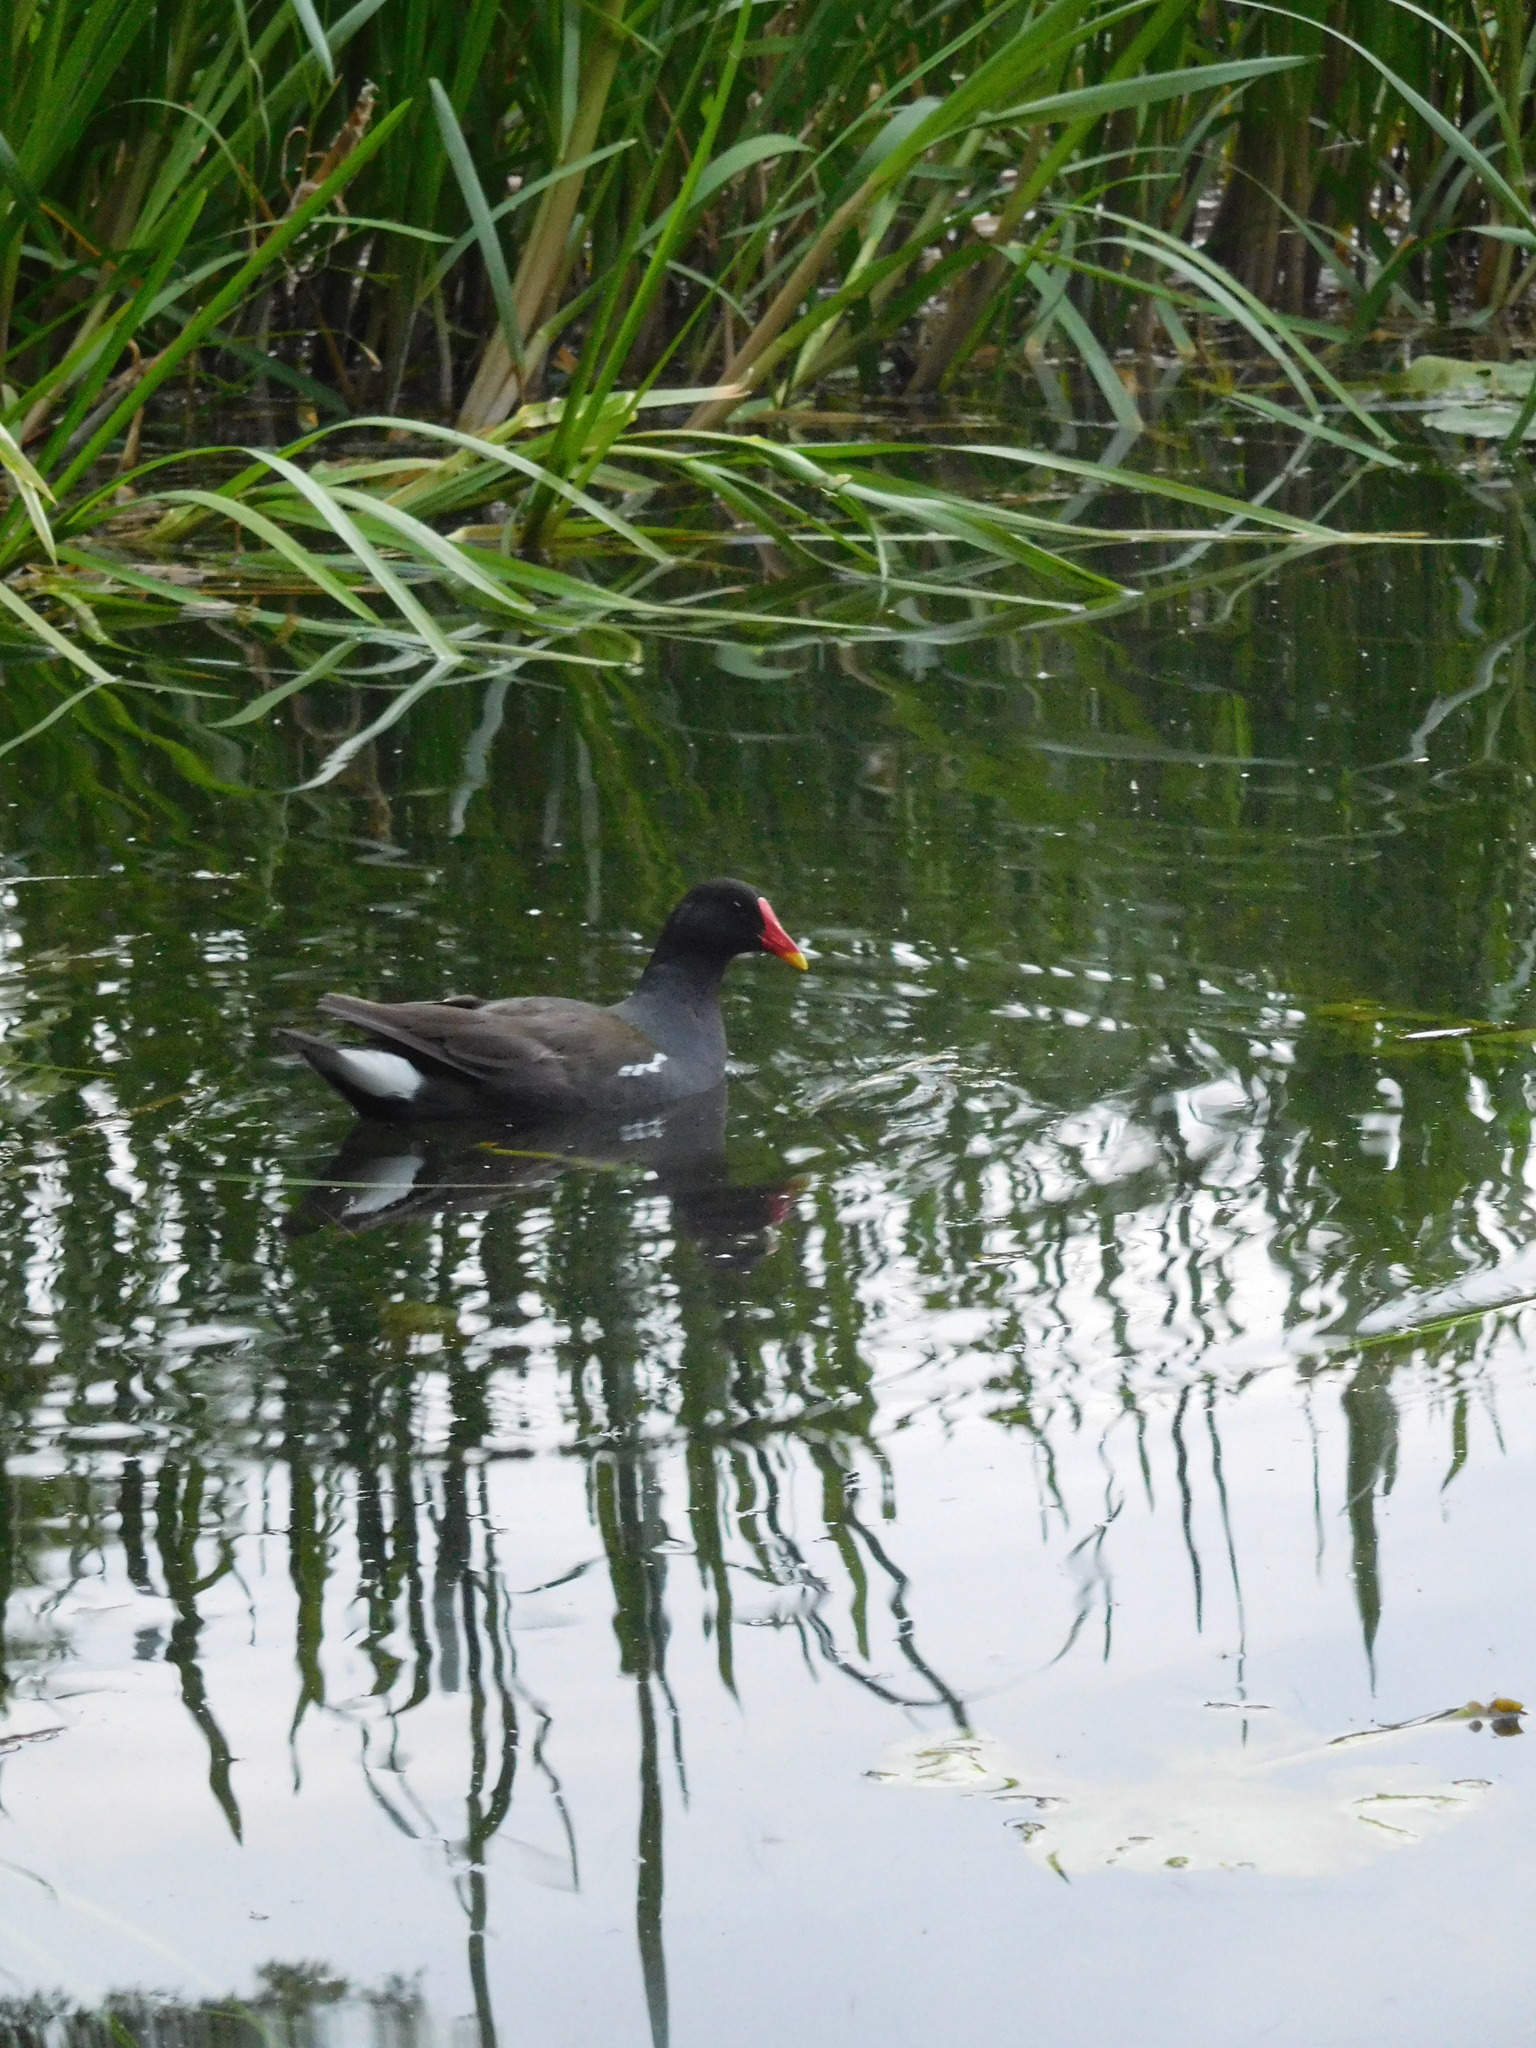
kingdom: Animalia
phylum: Chordata
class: Aves
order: Gruiformes
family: Rallidae
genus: Gallinula
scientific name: Gallinula chloropus
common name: Common moorhen
